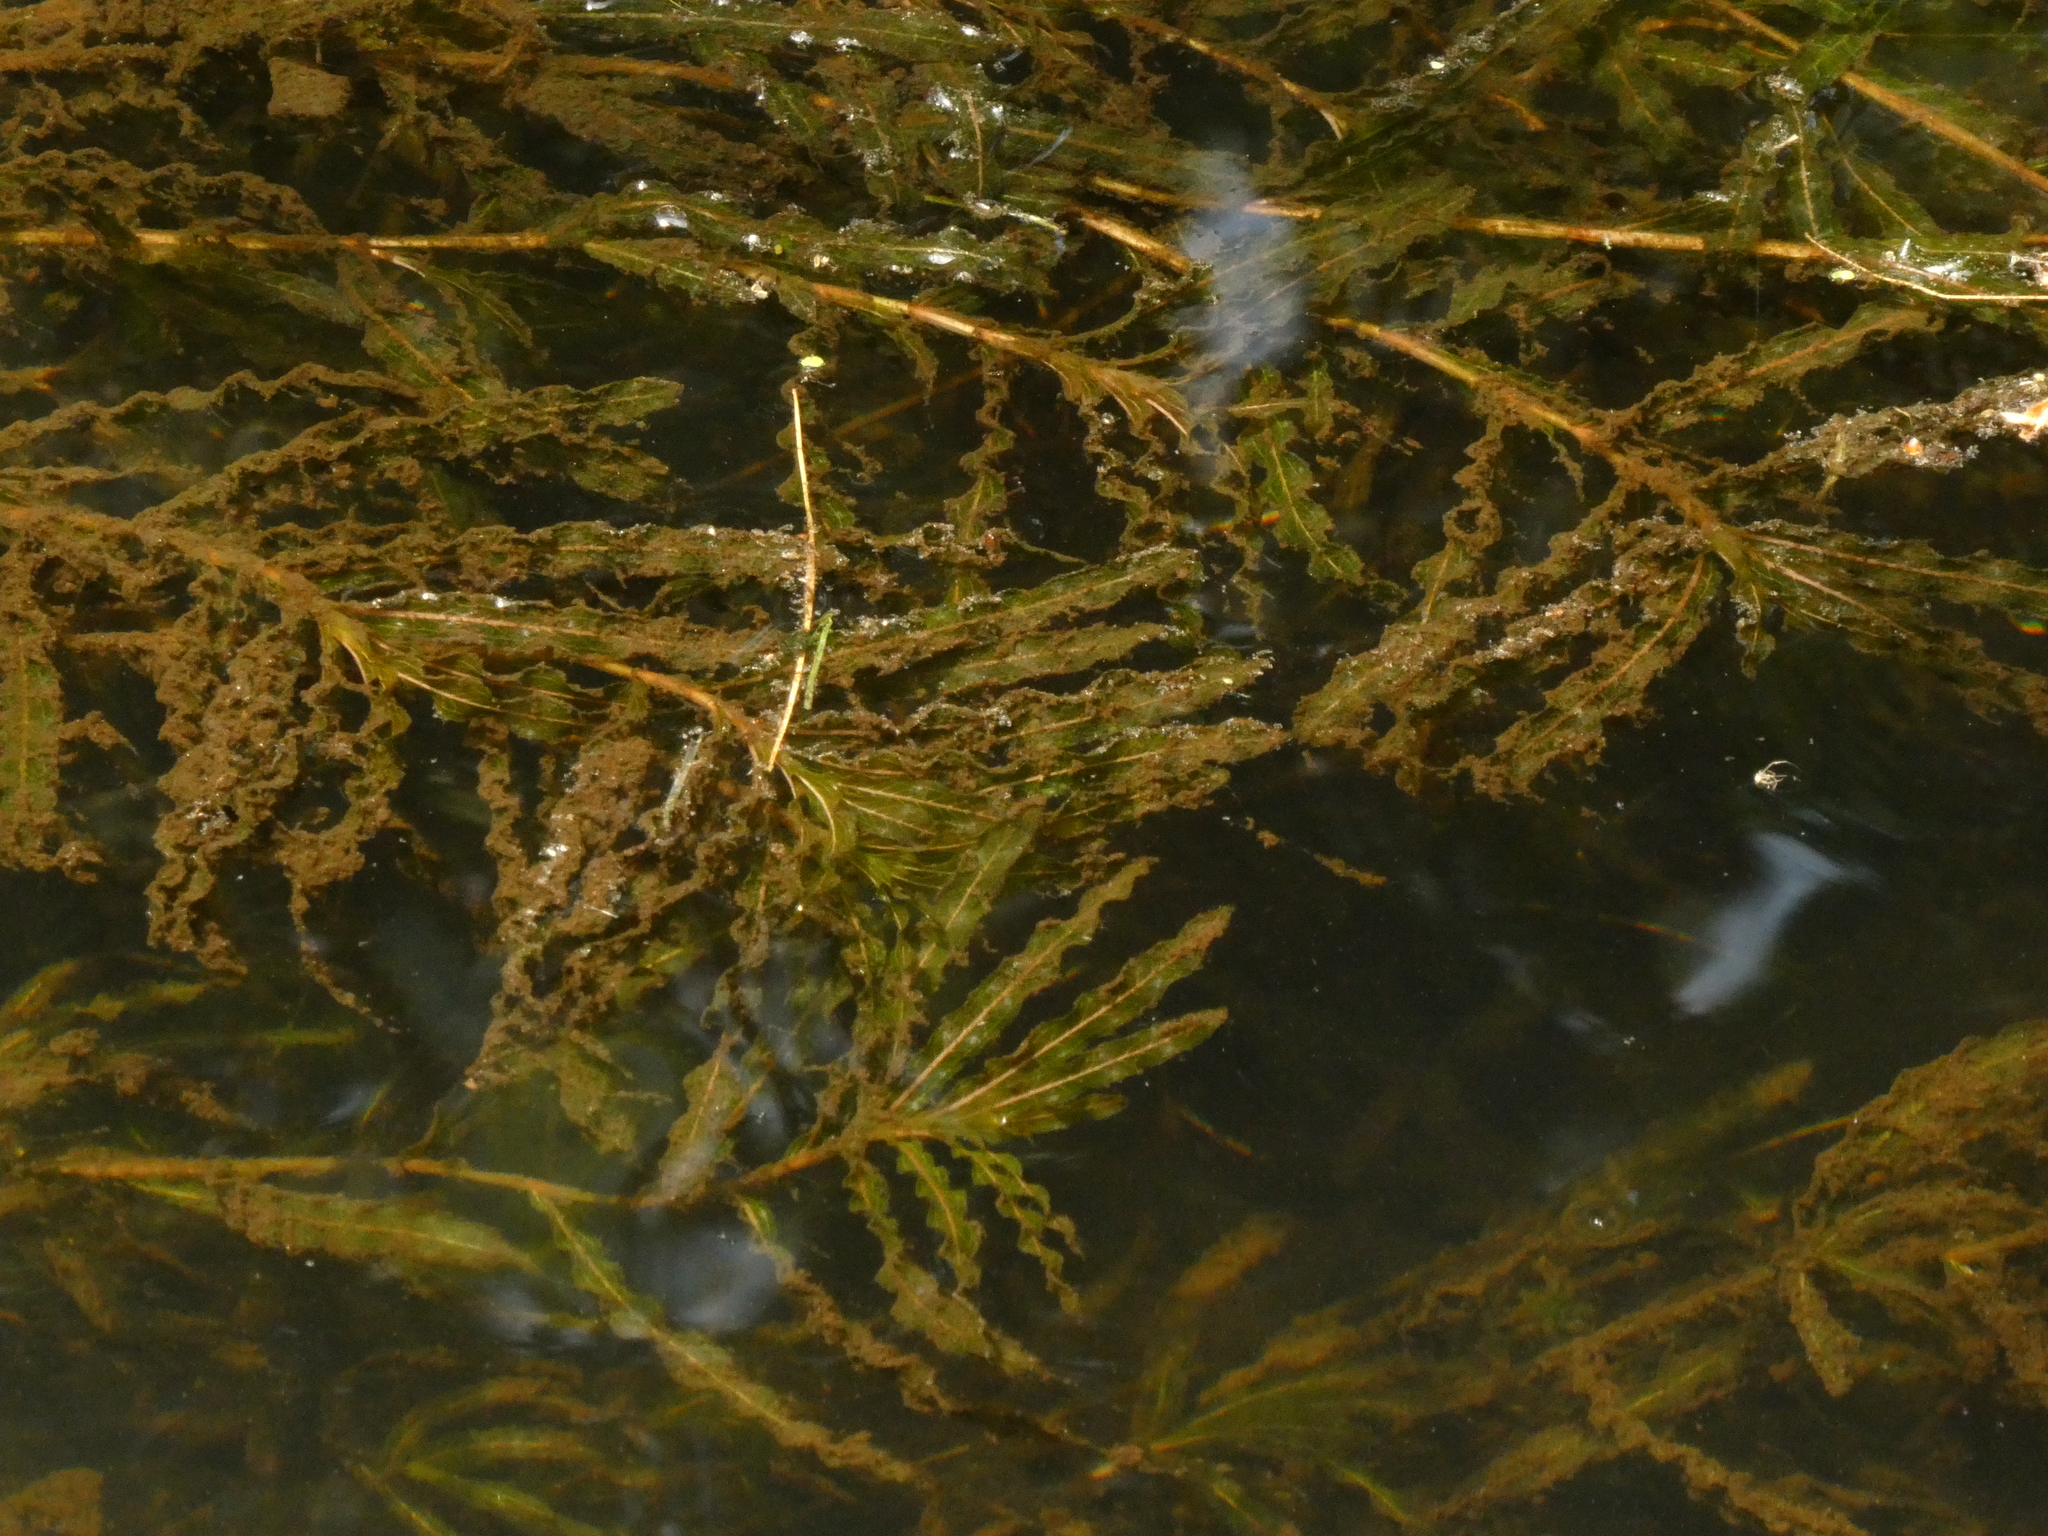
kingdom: Plantae
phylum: Tracheophyta
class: Liliopsida
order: Alismatales
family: Potamogetonaceae
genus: Potamogeton
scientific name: Potamogeton crispus
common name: Curled pondweed
